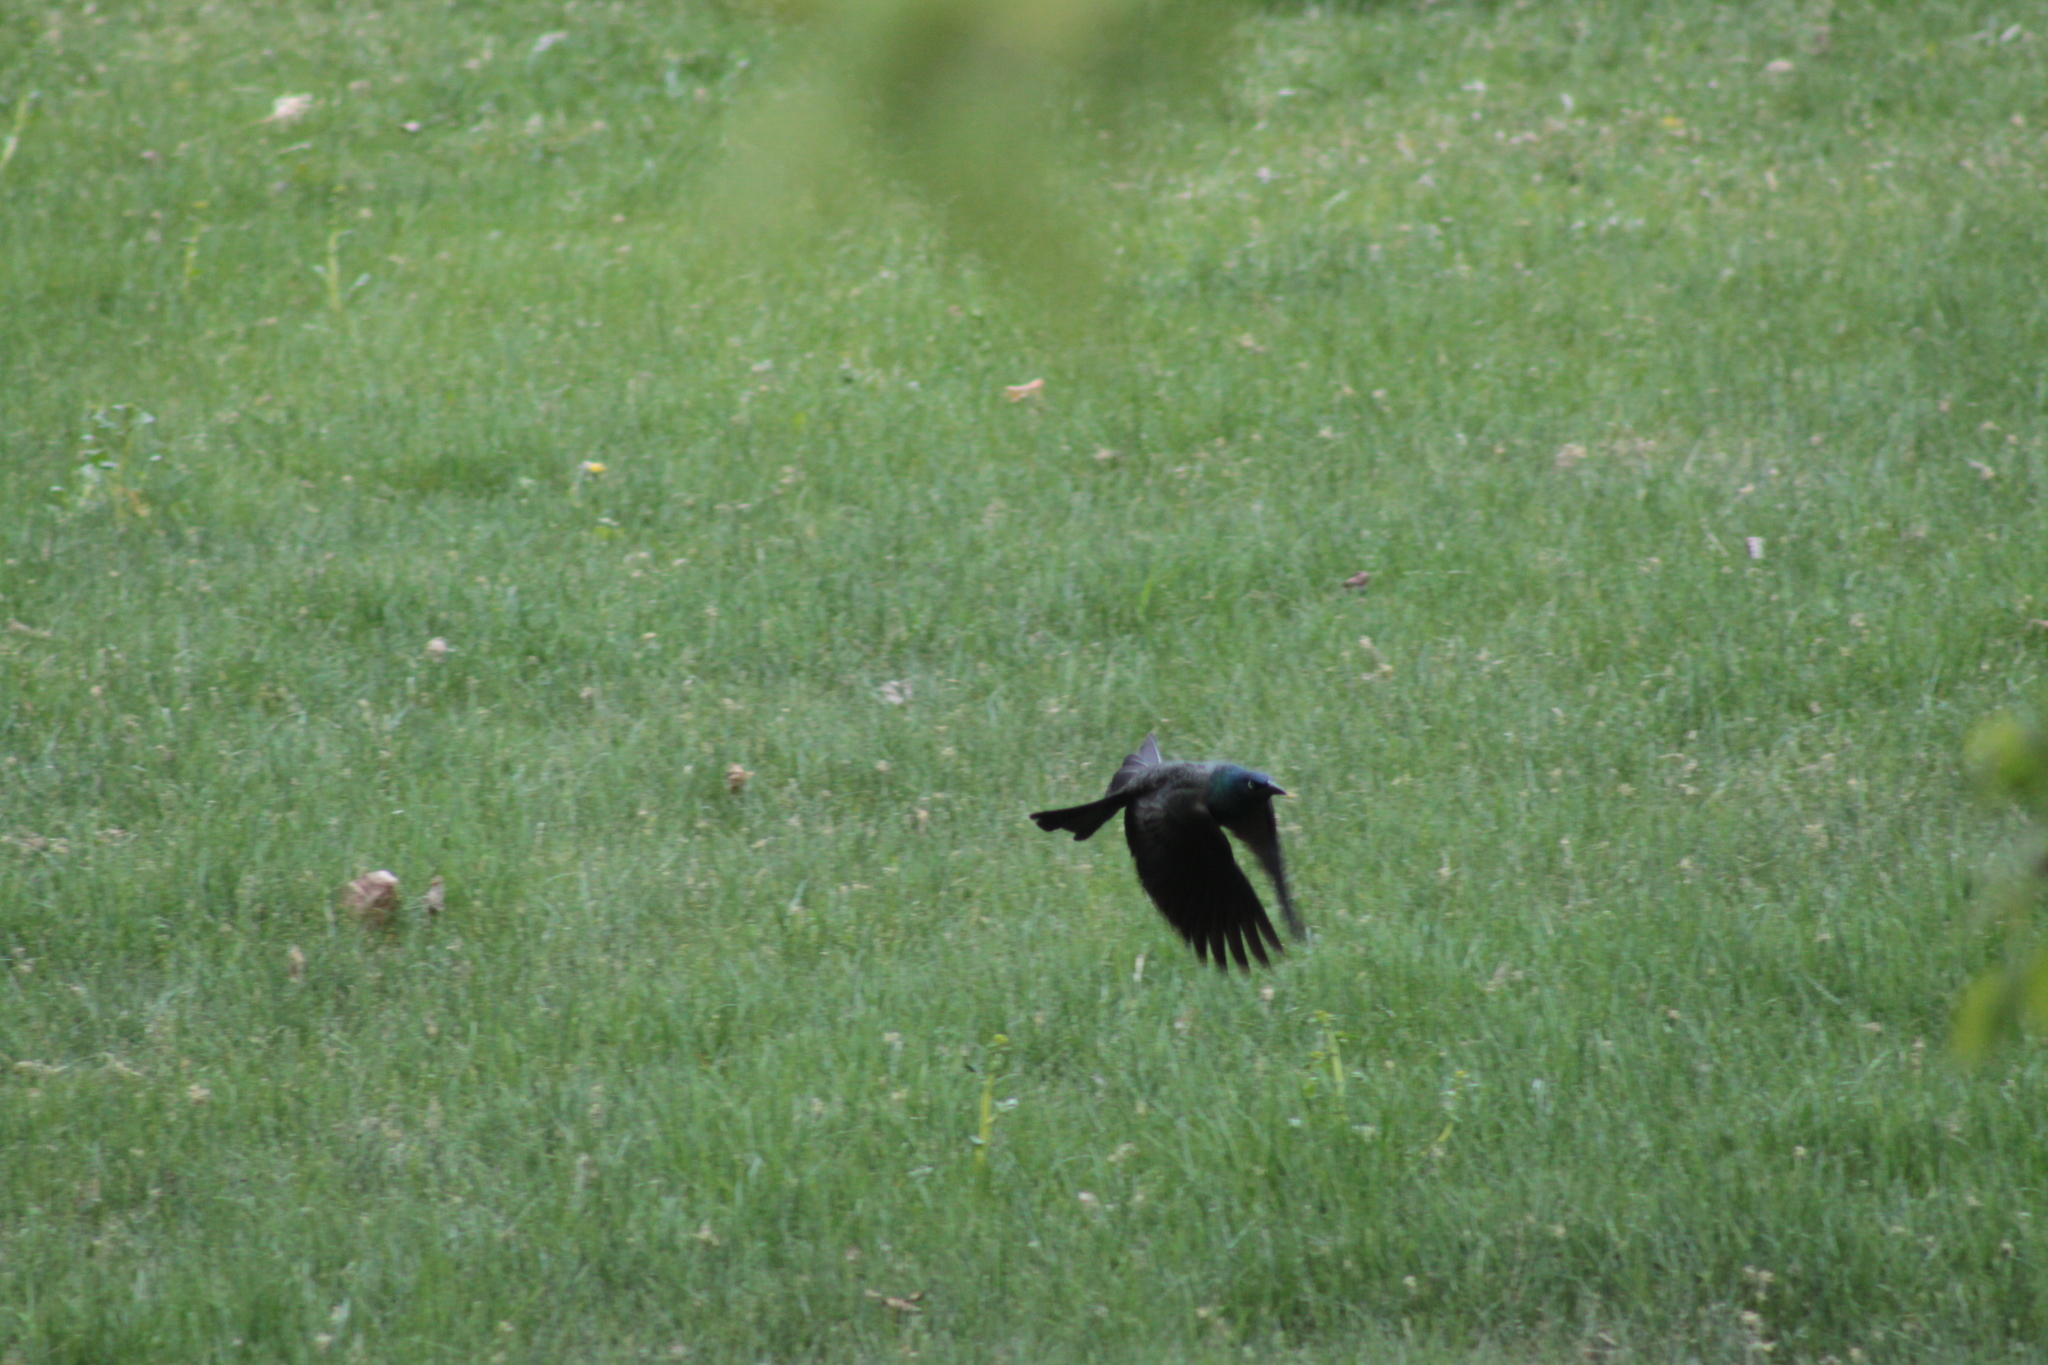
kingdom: Animalia
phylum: Chordata
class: Aves
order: Passeriformes
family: Icteridae
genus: Quiscalus
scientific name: Quiscalus quiscula
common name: Common grackle
